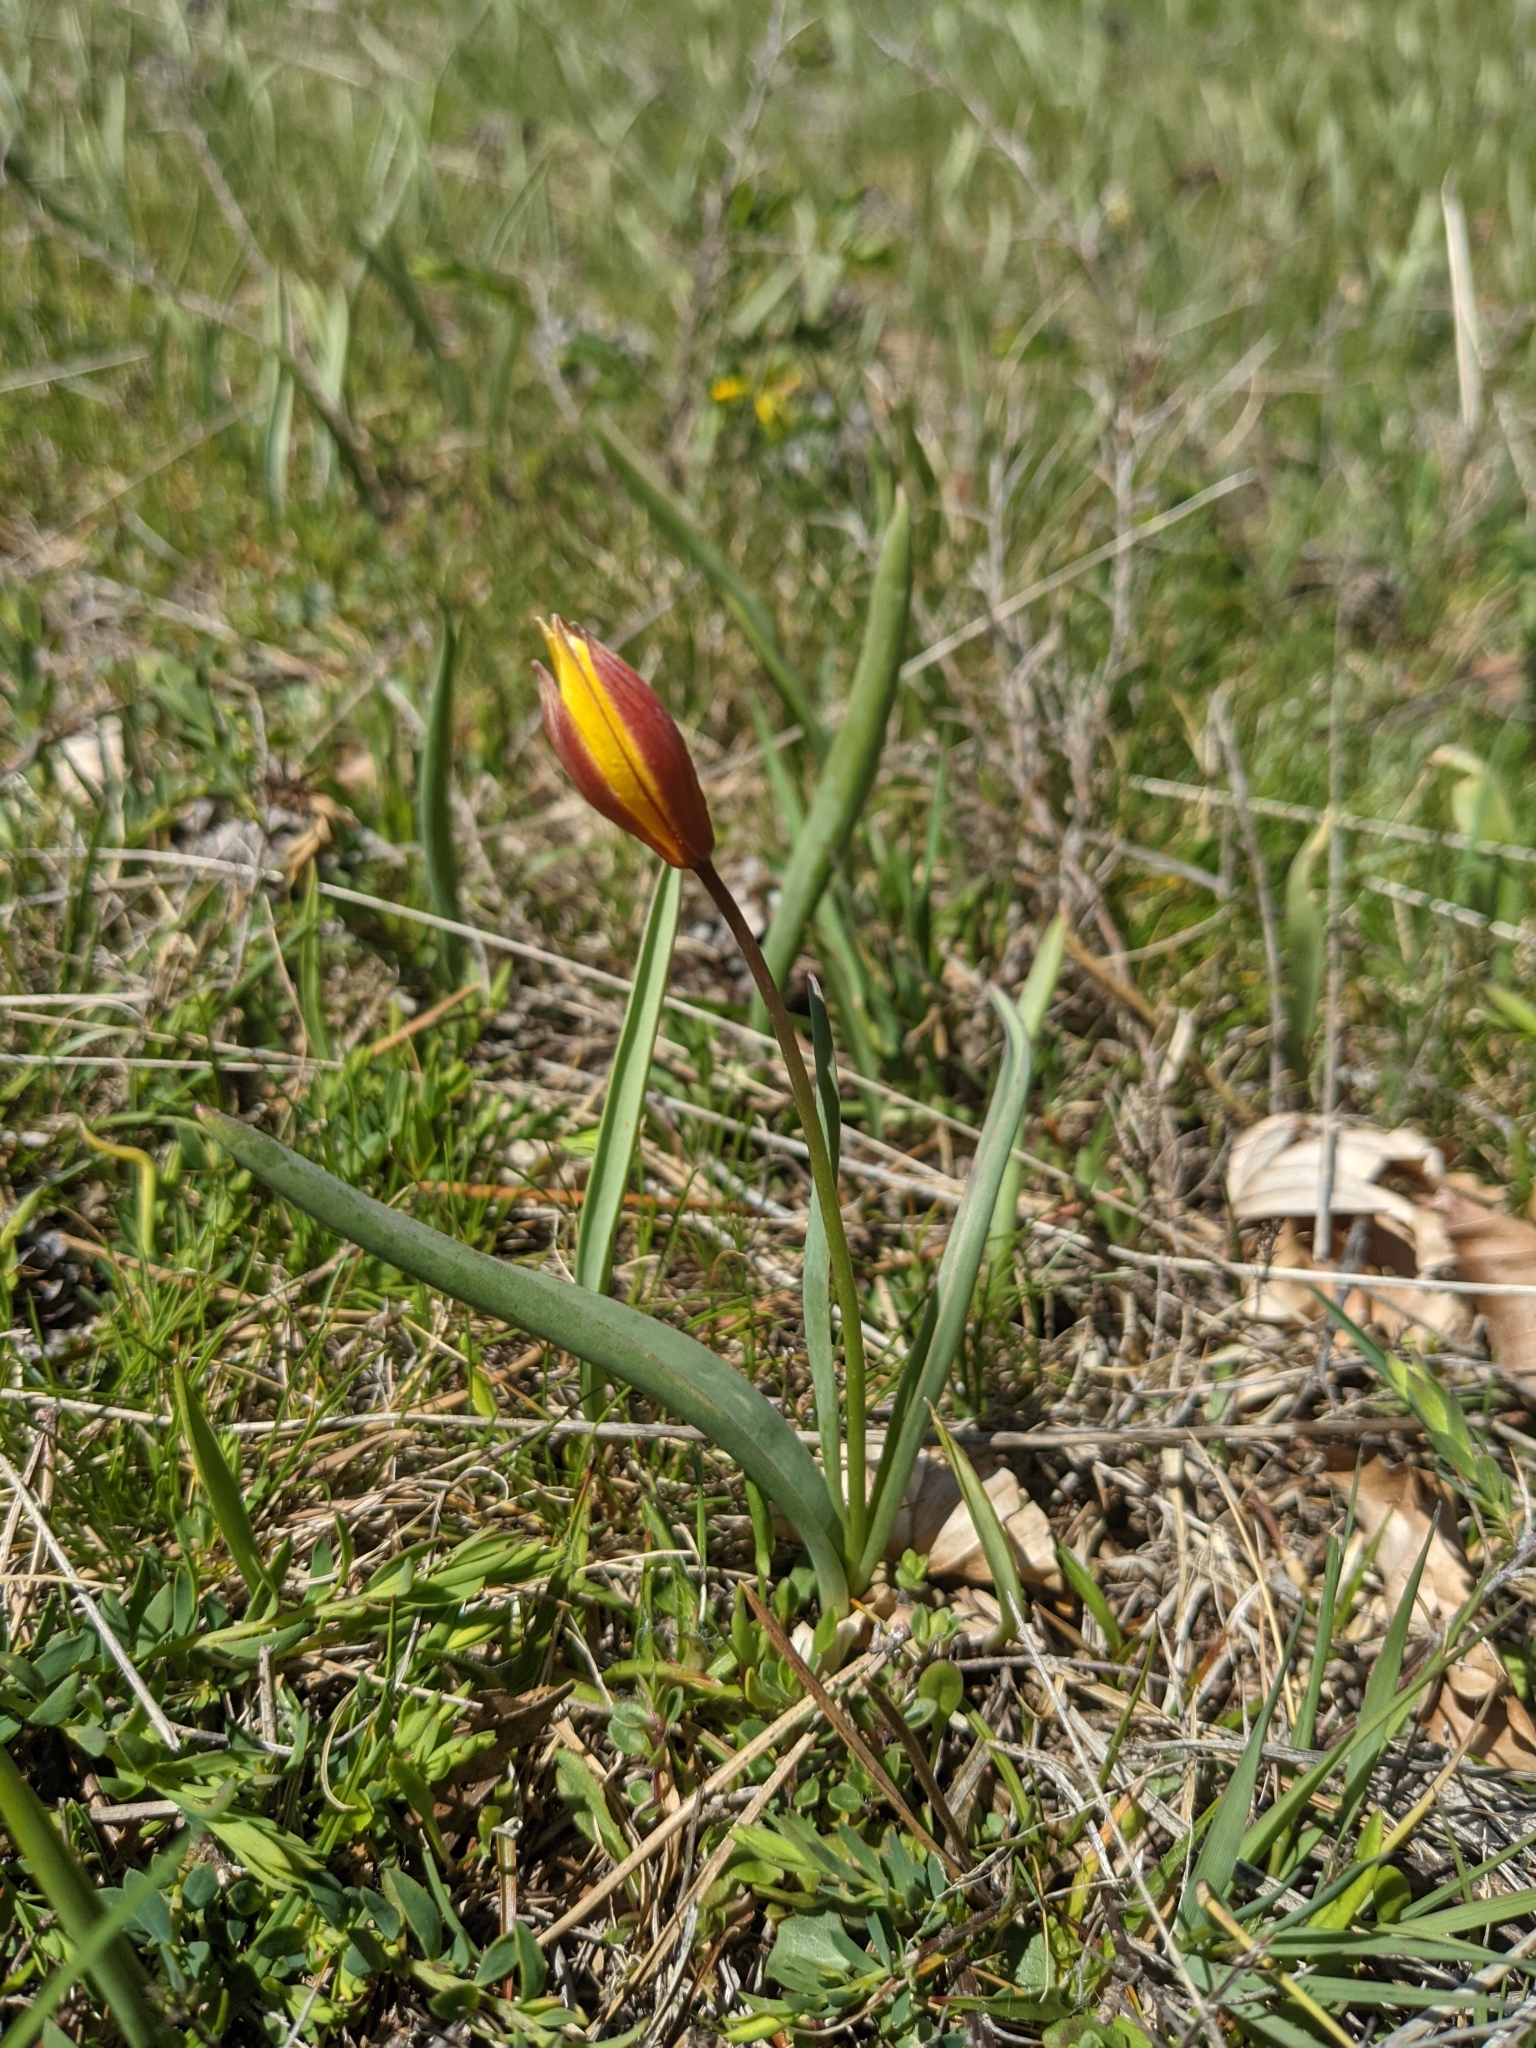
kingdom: Plantae
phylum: Tracheophyta
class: Liliopsida
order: Liliales
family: Liliaceae
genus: Tulipa
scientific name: Tulipa sylvestris
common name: Wild tulip
